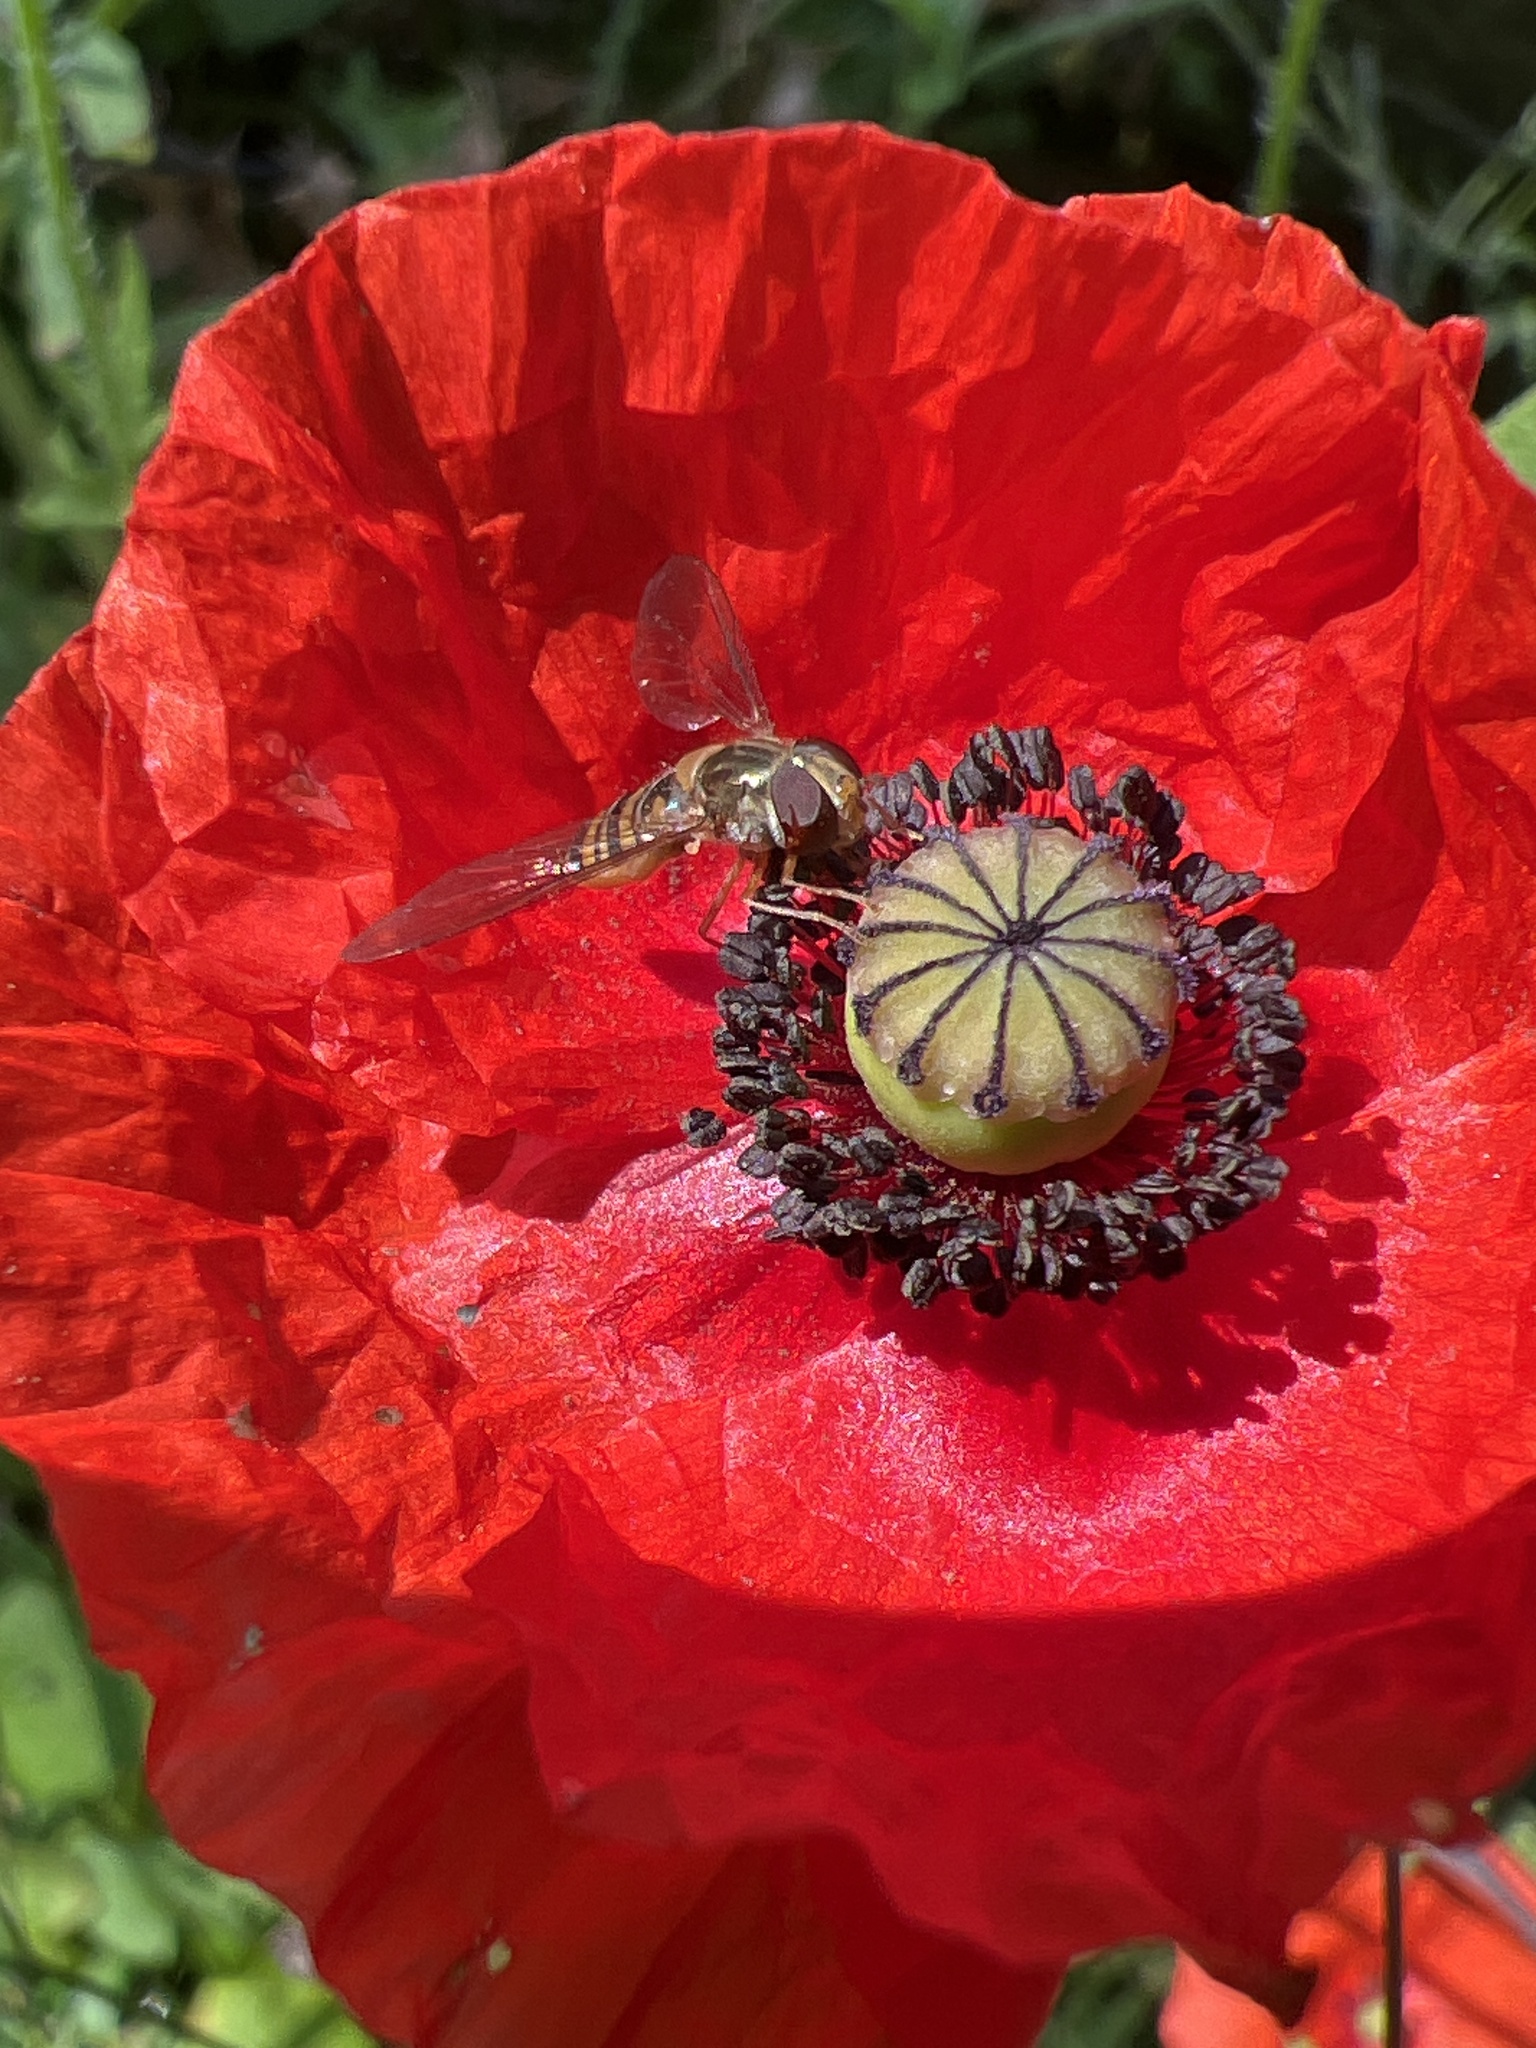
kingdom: Animalia
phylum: Arthropoda
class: Insecta
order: Diptera
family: Syrphidae
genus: Episyrphus
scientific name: Episyrphus balteatus
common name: Marmalade hoverfly
